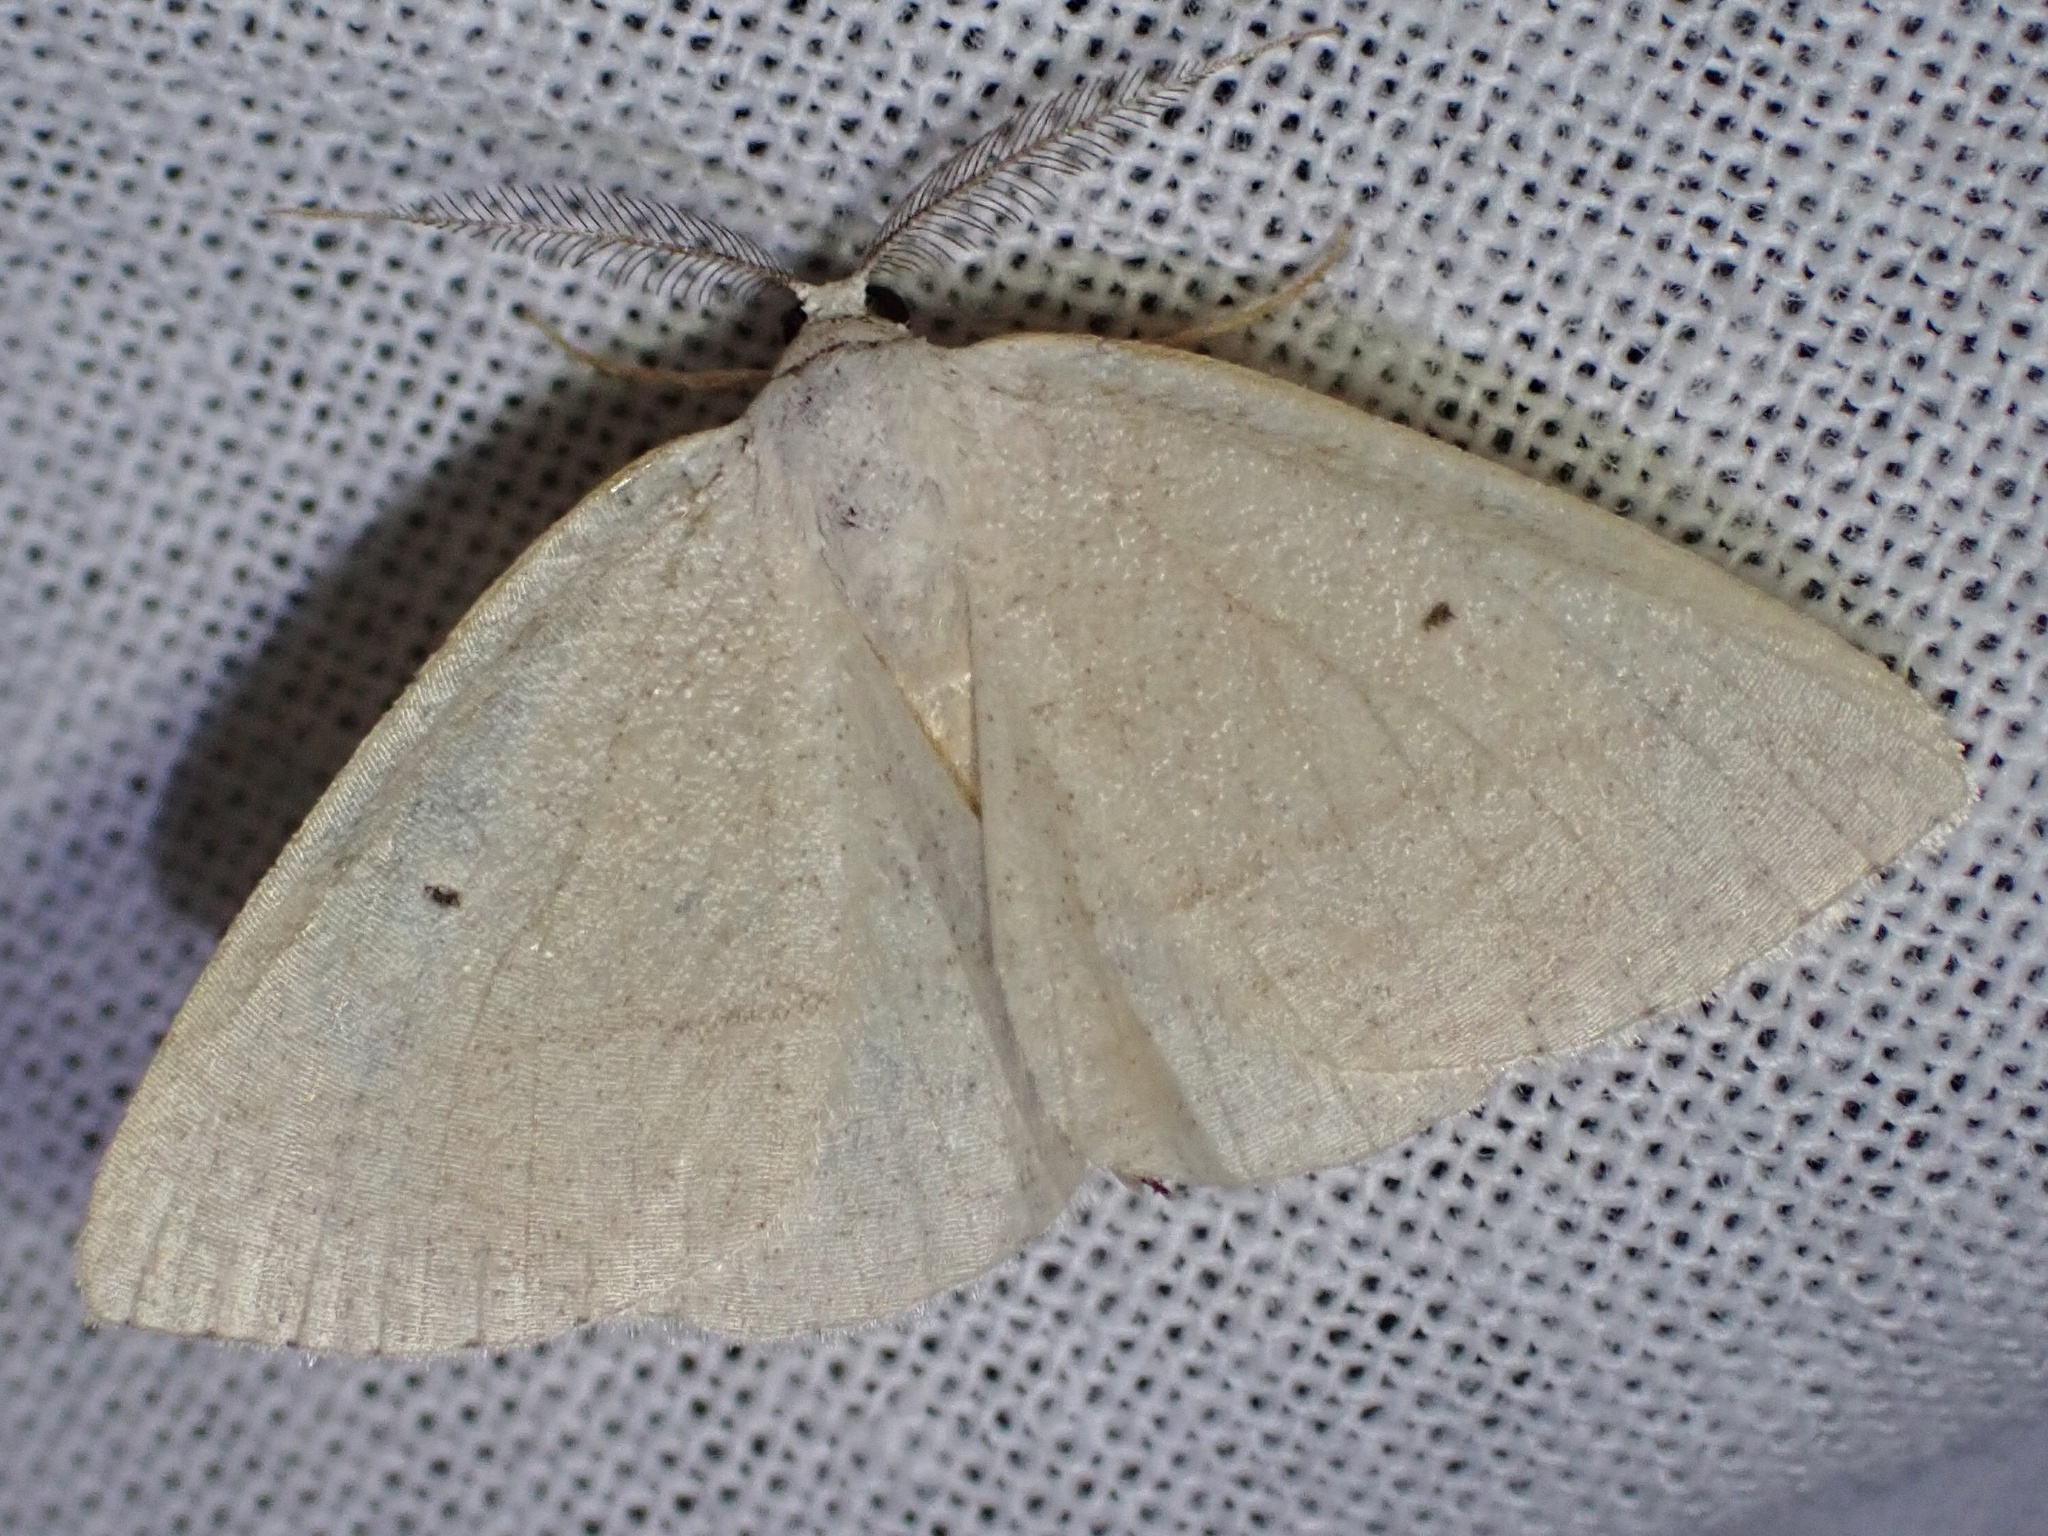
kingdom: Animalia
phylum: Arthropoda
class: Insecta
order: Lepidoptera
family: Geometridae
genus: Eudrepanulatrix
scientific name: Eudrepanulatrix rectifascia
